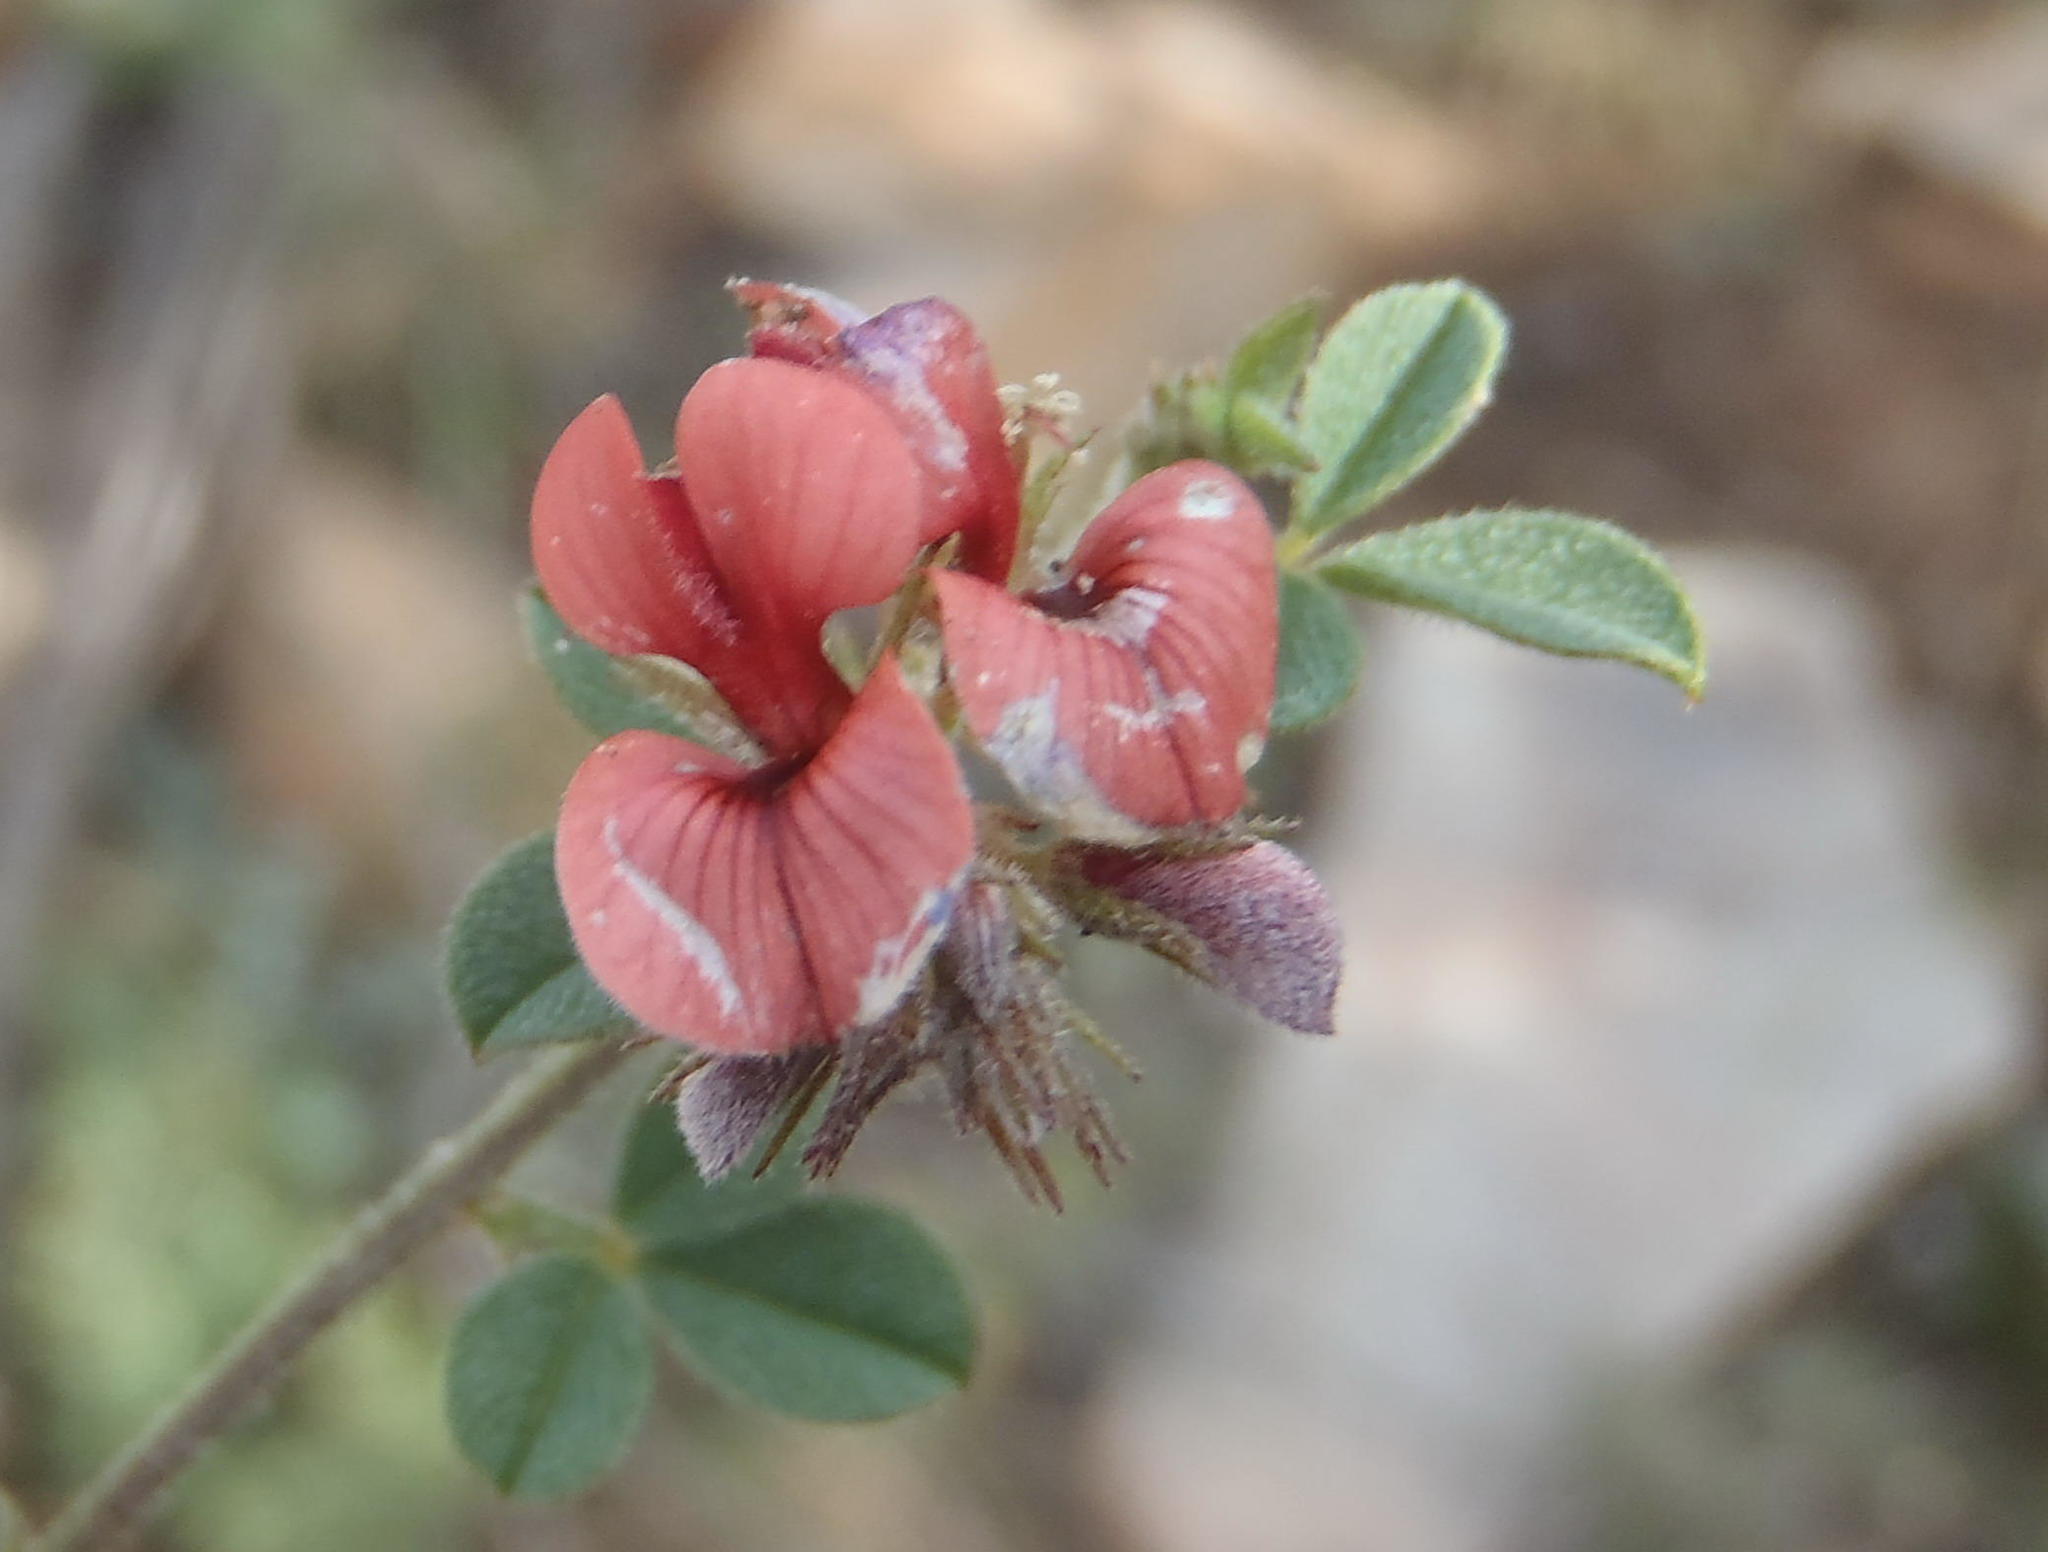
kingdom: Plantae
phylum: Tracheophyta
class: Magnoliopsida
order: Fabales
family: Fabaceae
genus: Indigofera
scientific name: Indigofera priorii
